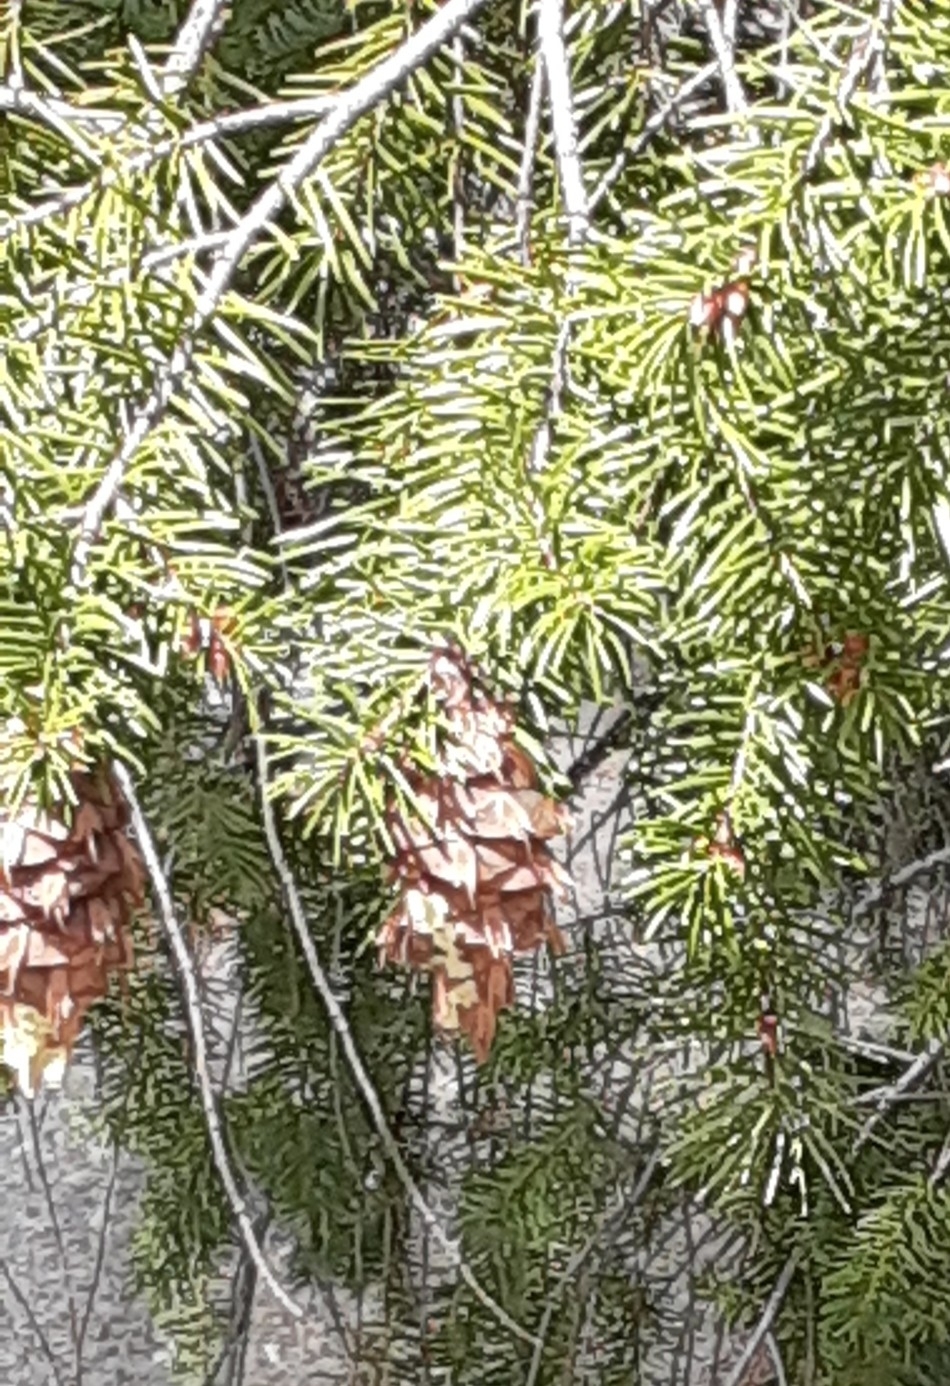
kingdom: Plantae
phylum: Tracheophyta
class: Pinopsida
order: Pinales
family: Pinaceae
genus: Pseudotsuga
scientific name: Pseudotsuga menziesii
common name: Douglas fir
